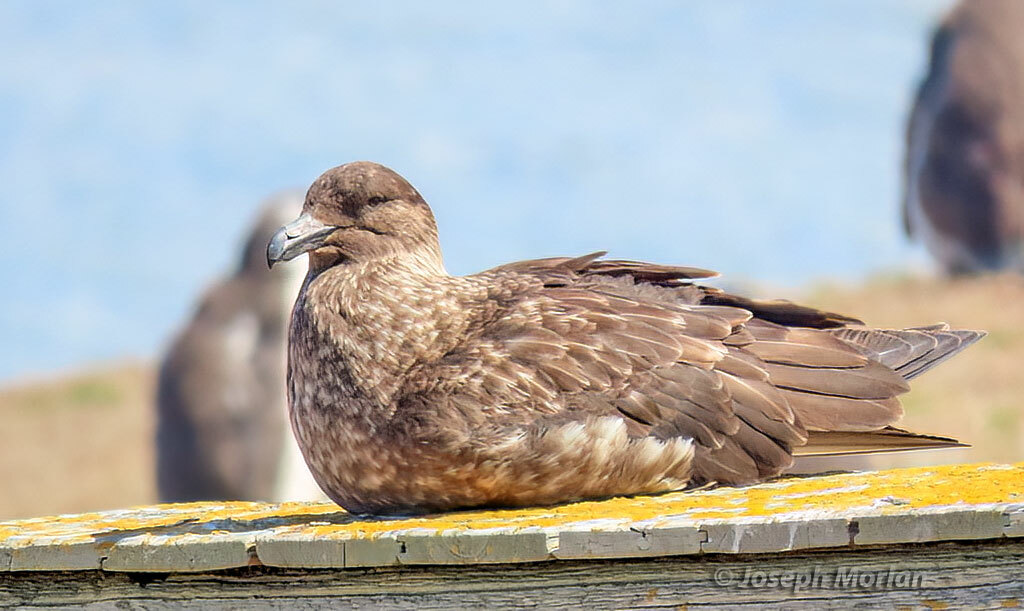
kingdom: Animalia
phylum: Chordata
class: Aves
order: Charadriiformes
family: Stercorariidae
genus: Stercorarius
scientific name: Stercorarius antarcticus
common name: Brown skua
